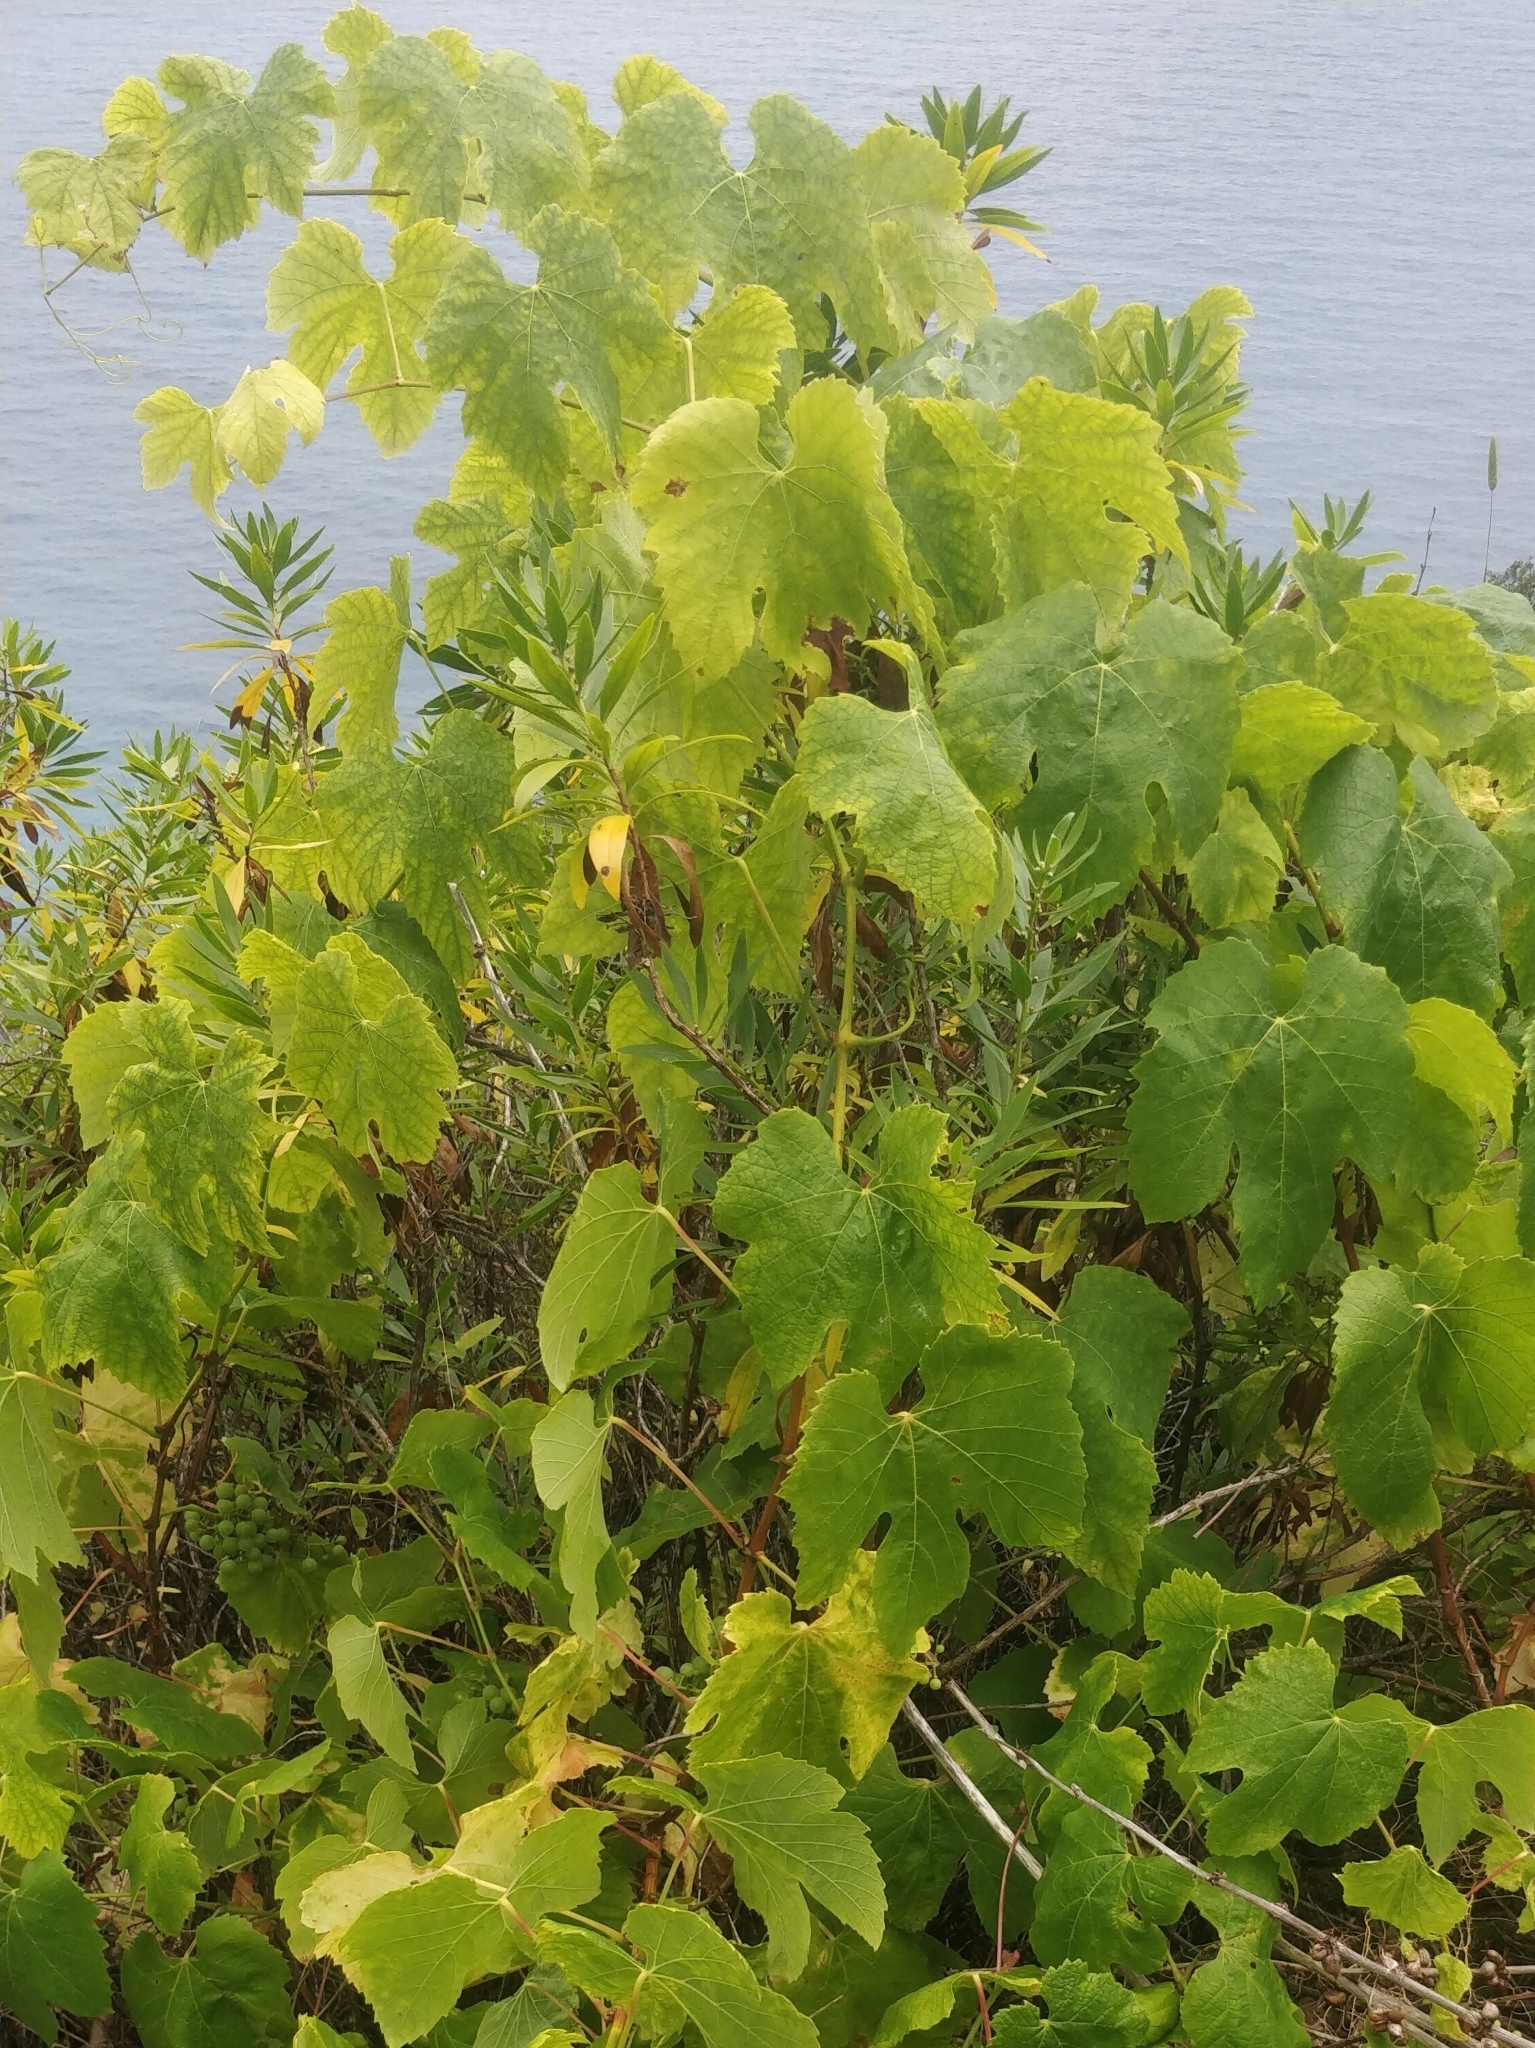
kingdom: Plantae
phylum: Tracheophyta
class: Magnoliopsida
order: Vitales
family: Vitaceae
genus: Vitis
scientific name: Vitis vinifera
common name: Grape-vine
